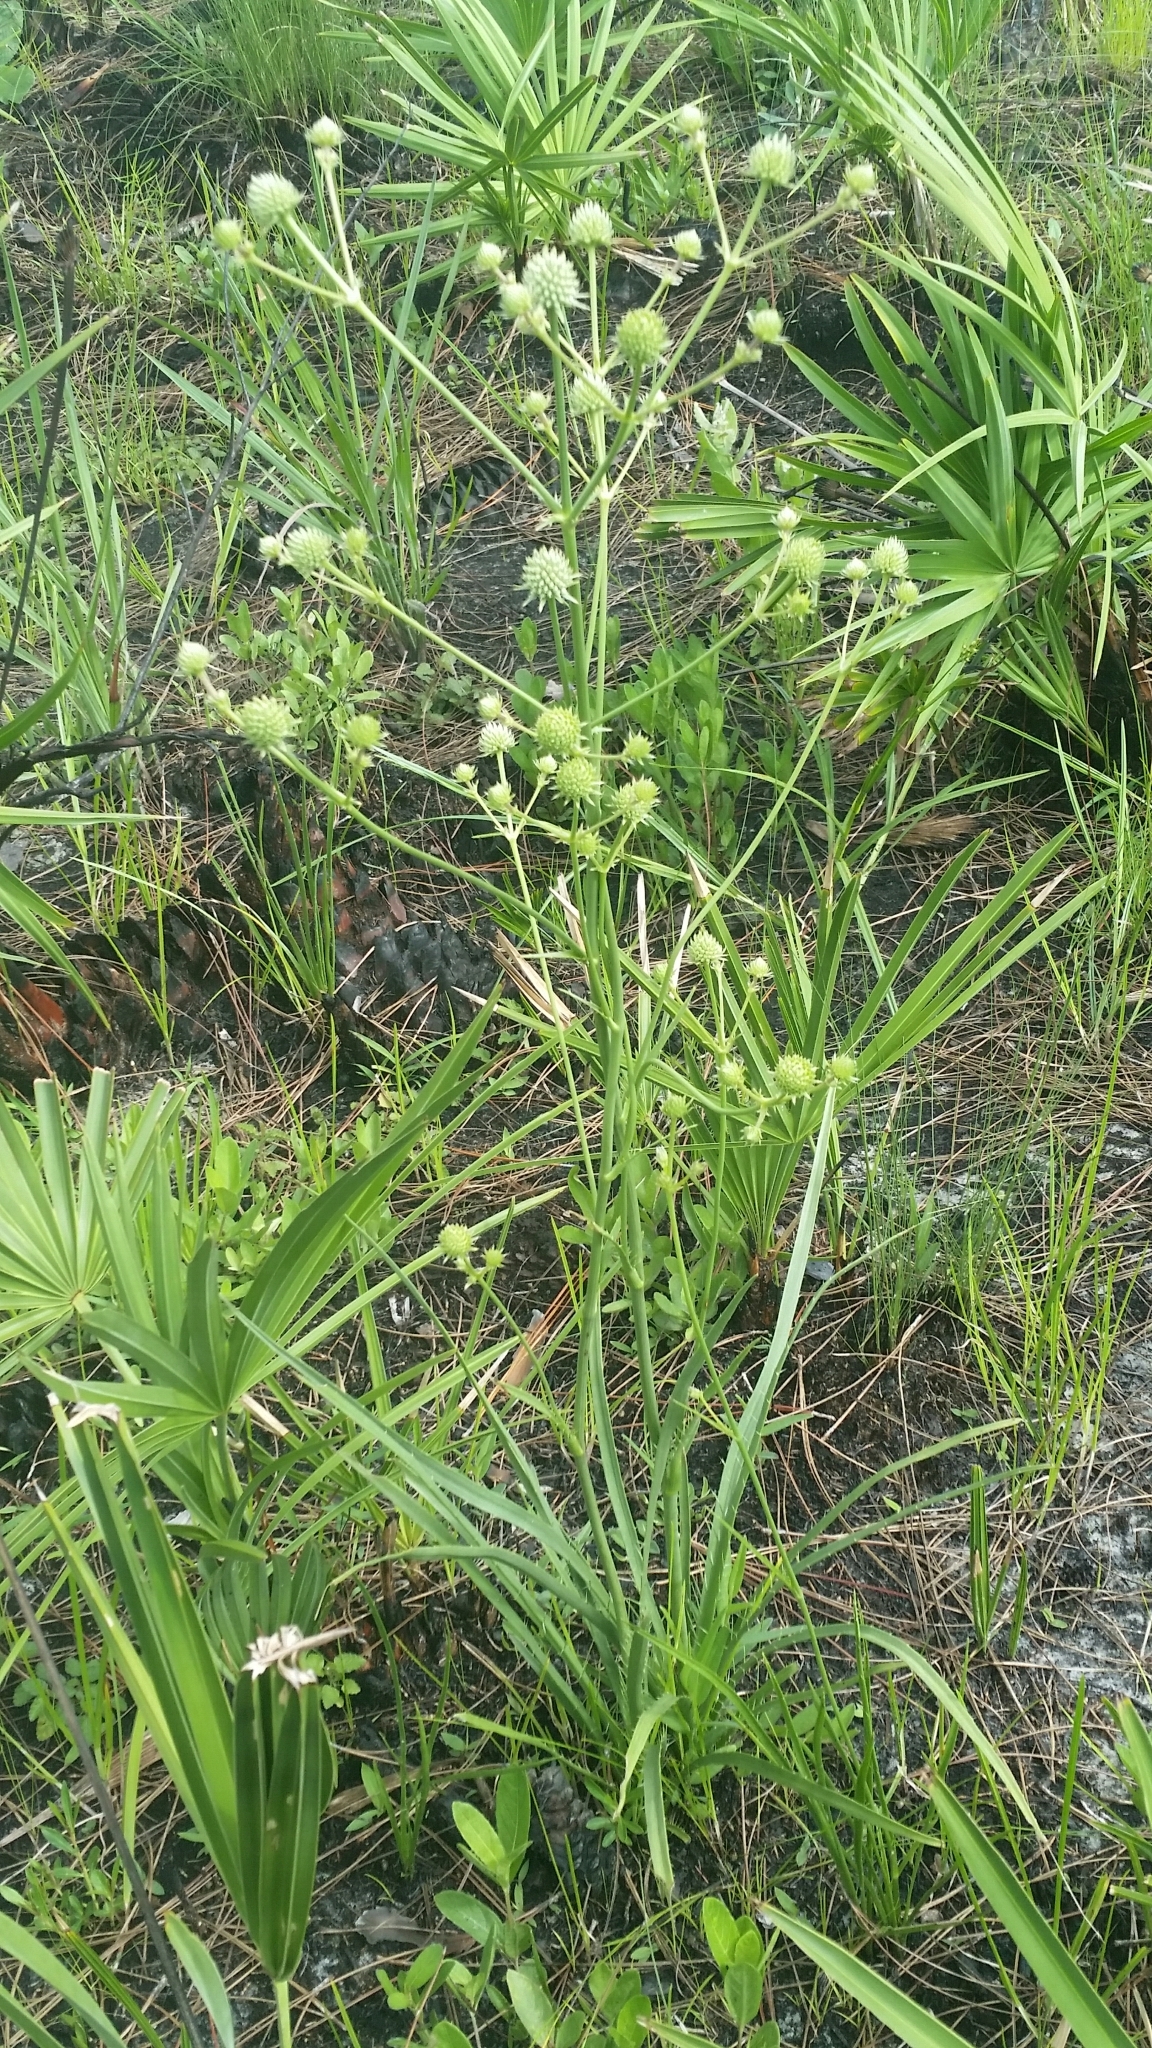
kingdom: Plantae
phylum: Tracheophyta
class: Magnoliopsida
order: Apiales
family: Apiaceae
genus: Eryngium
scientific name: Eryngium yuccifolium
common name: Button eryngo
